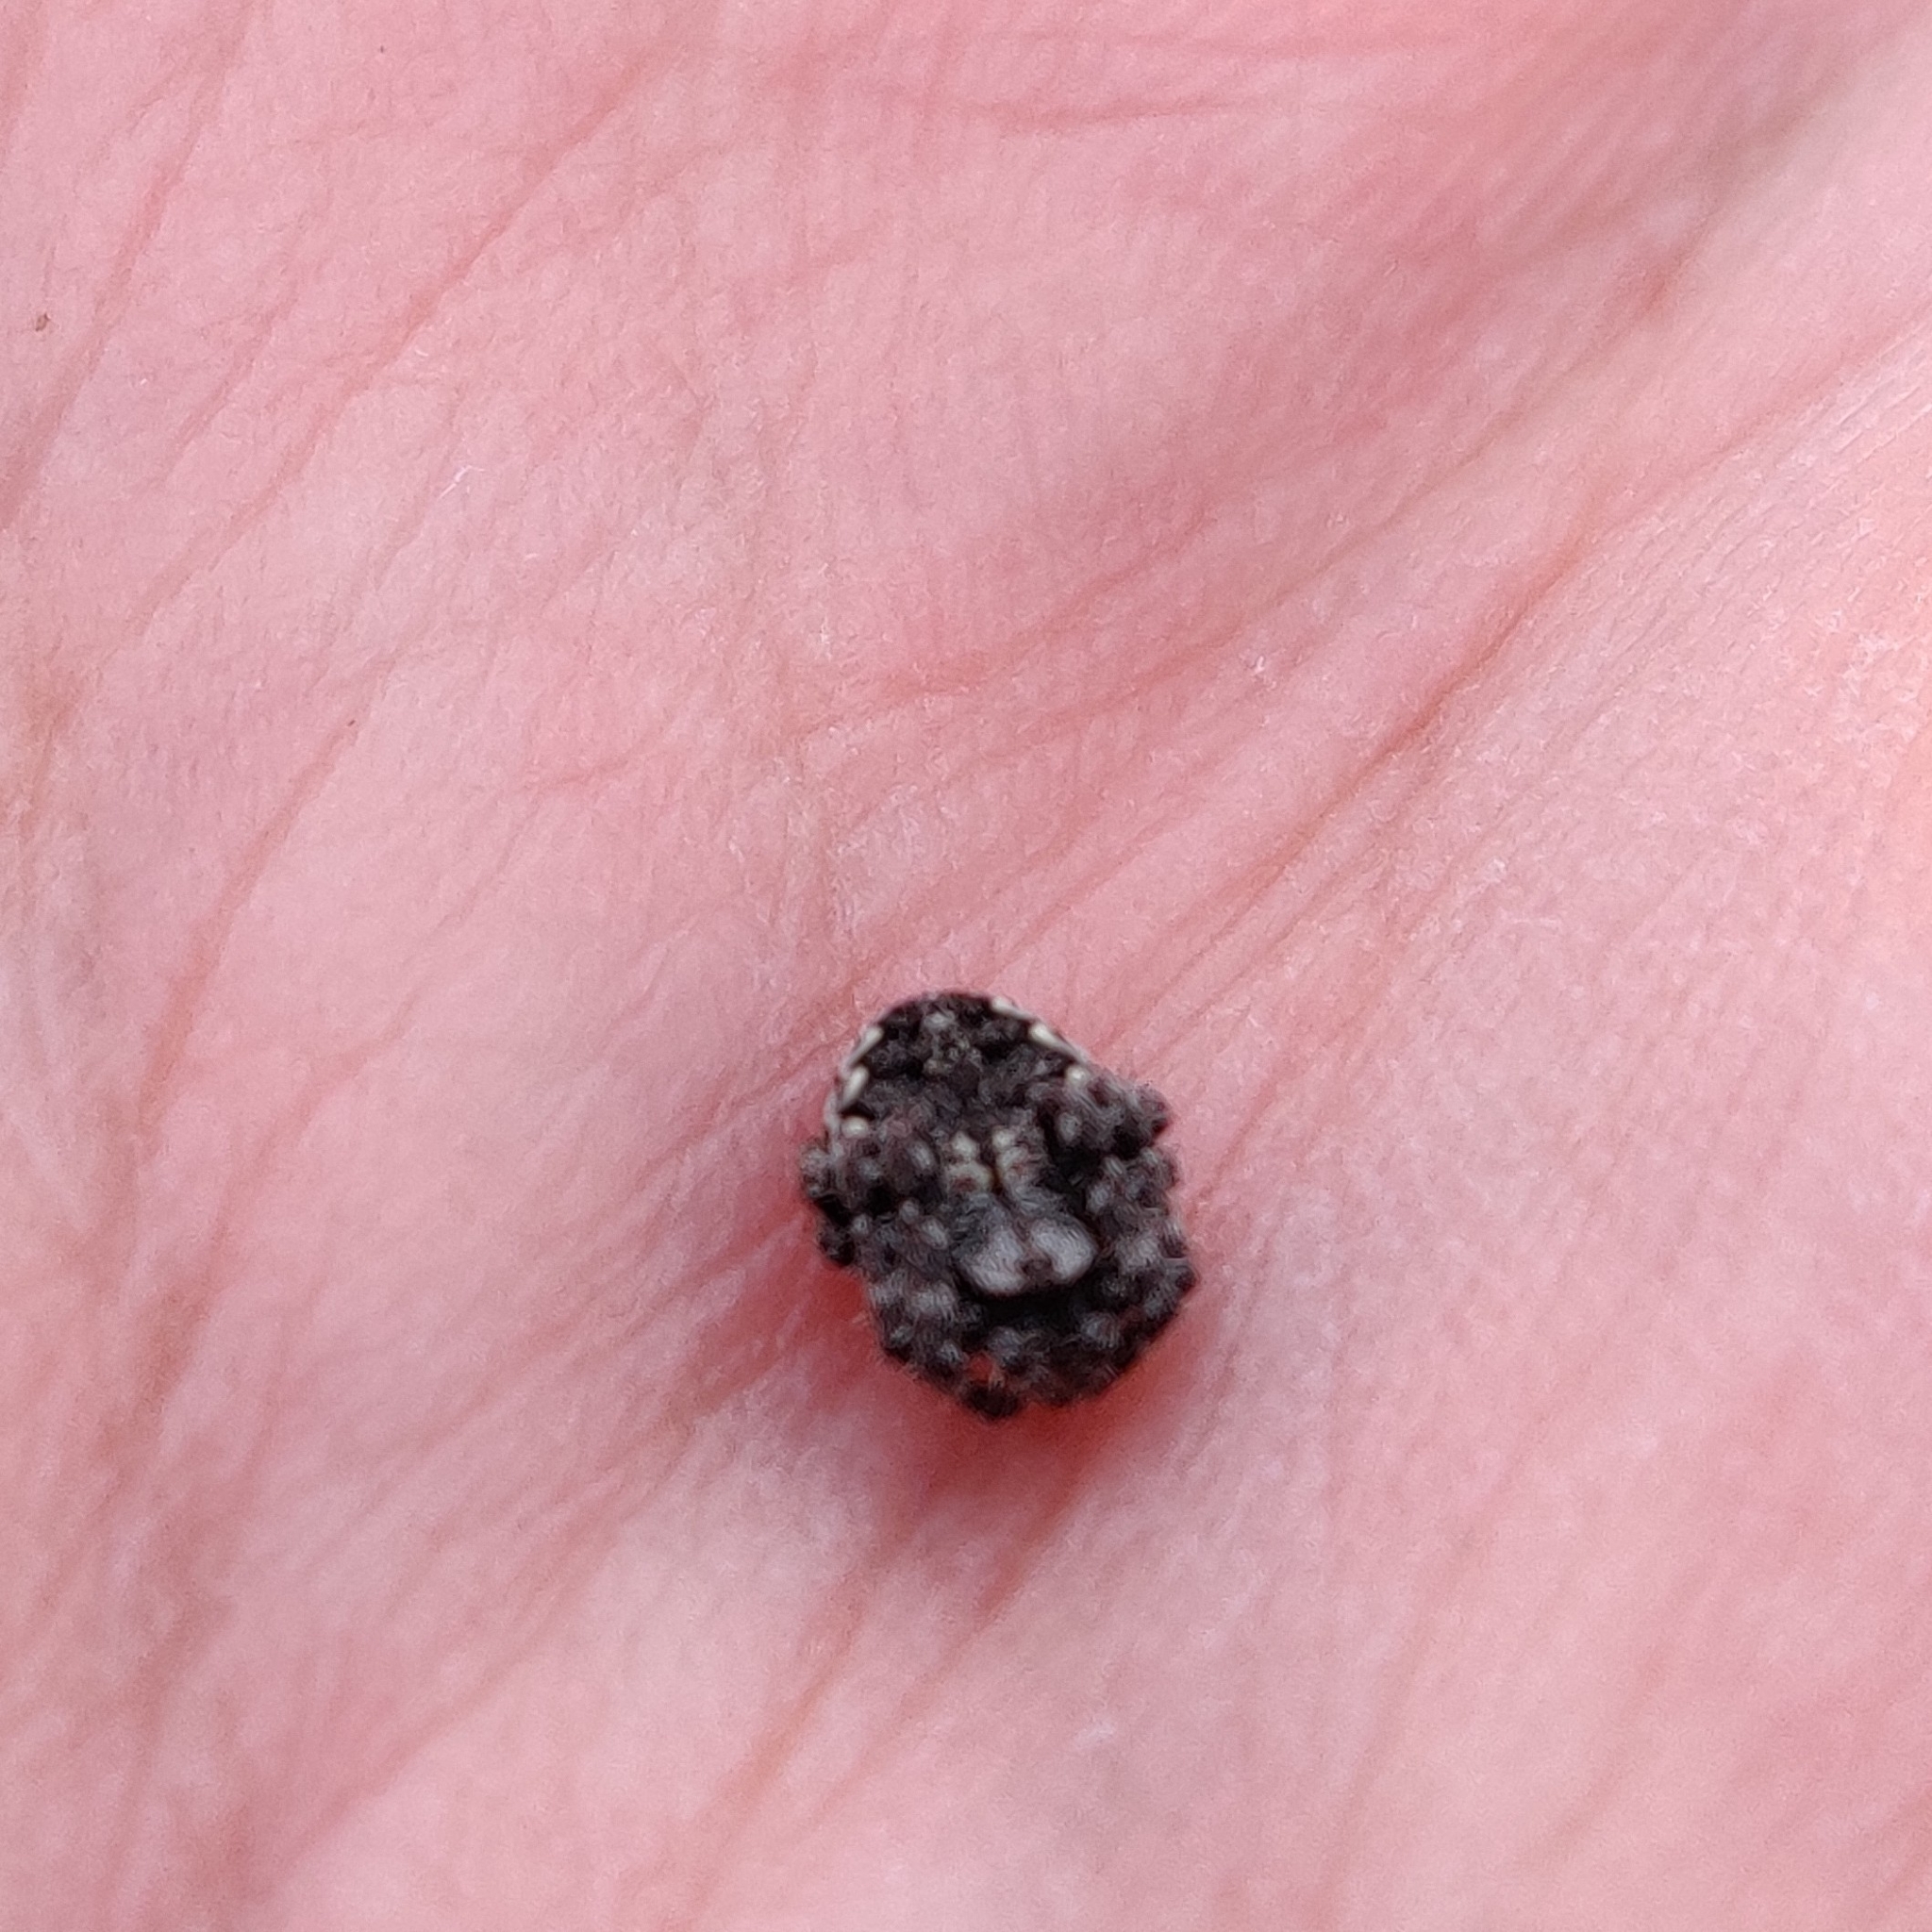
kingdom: Animalia
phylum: Arthropoda
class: Arachnida
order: Araneae
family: Araneidae
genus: Nuctenea
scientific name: Nuctenea silvicultrix
